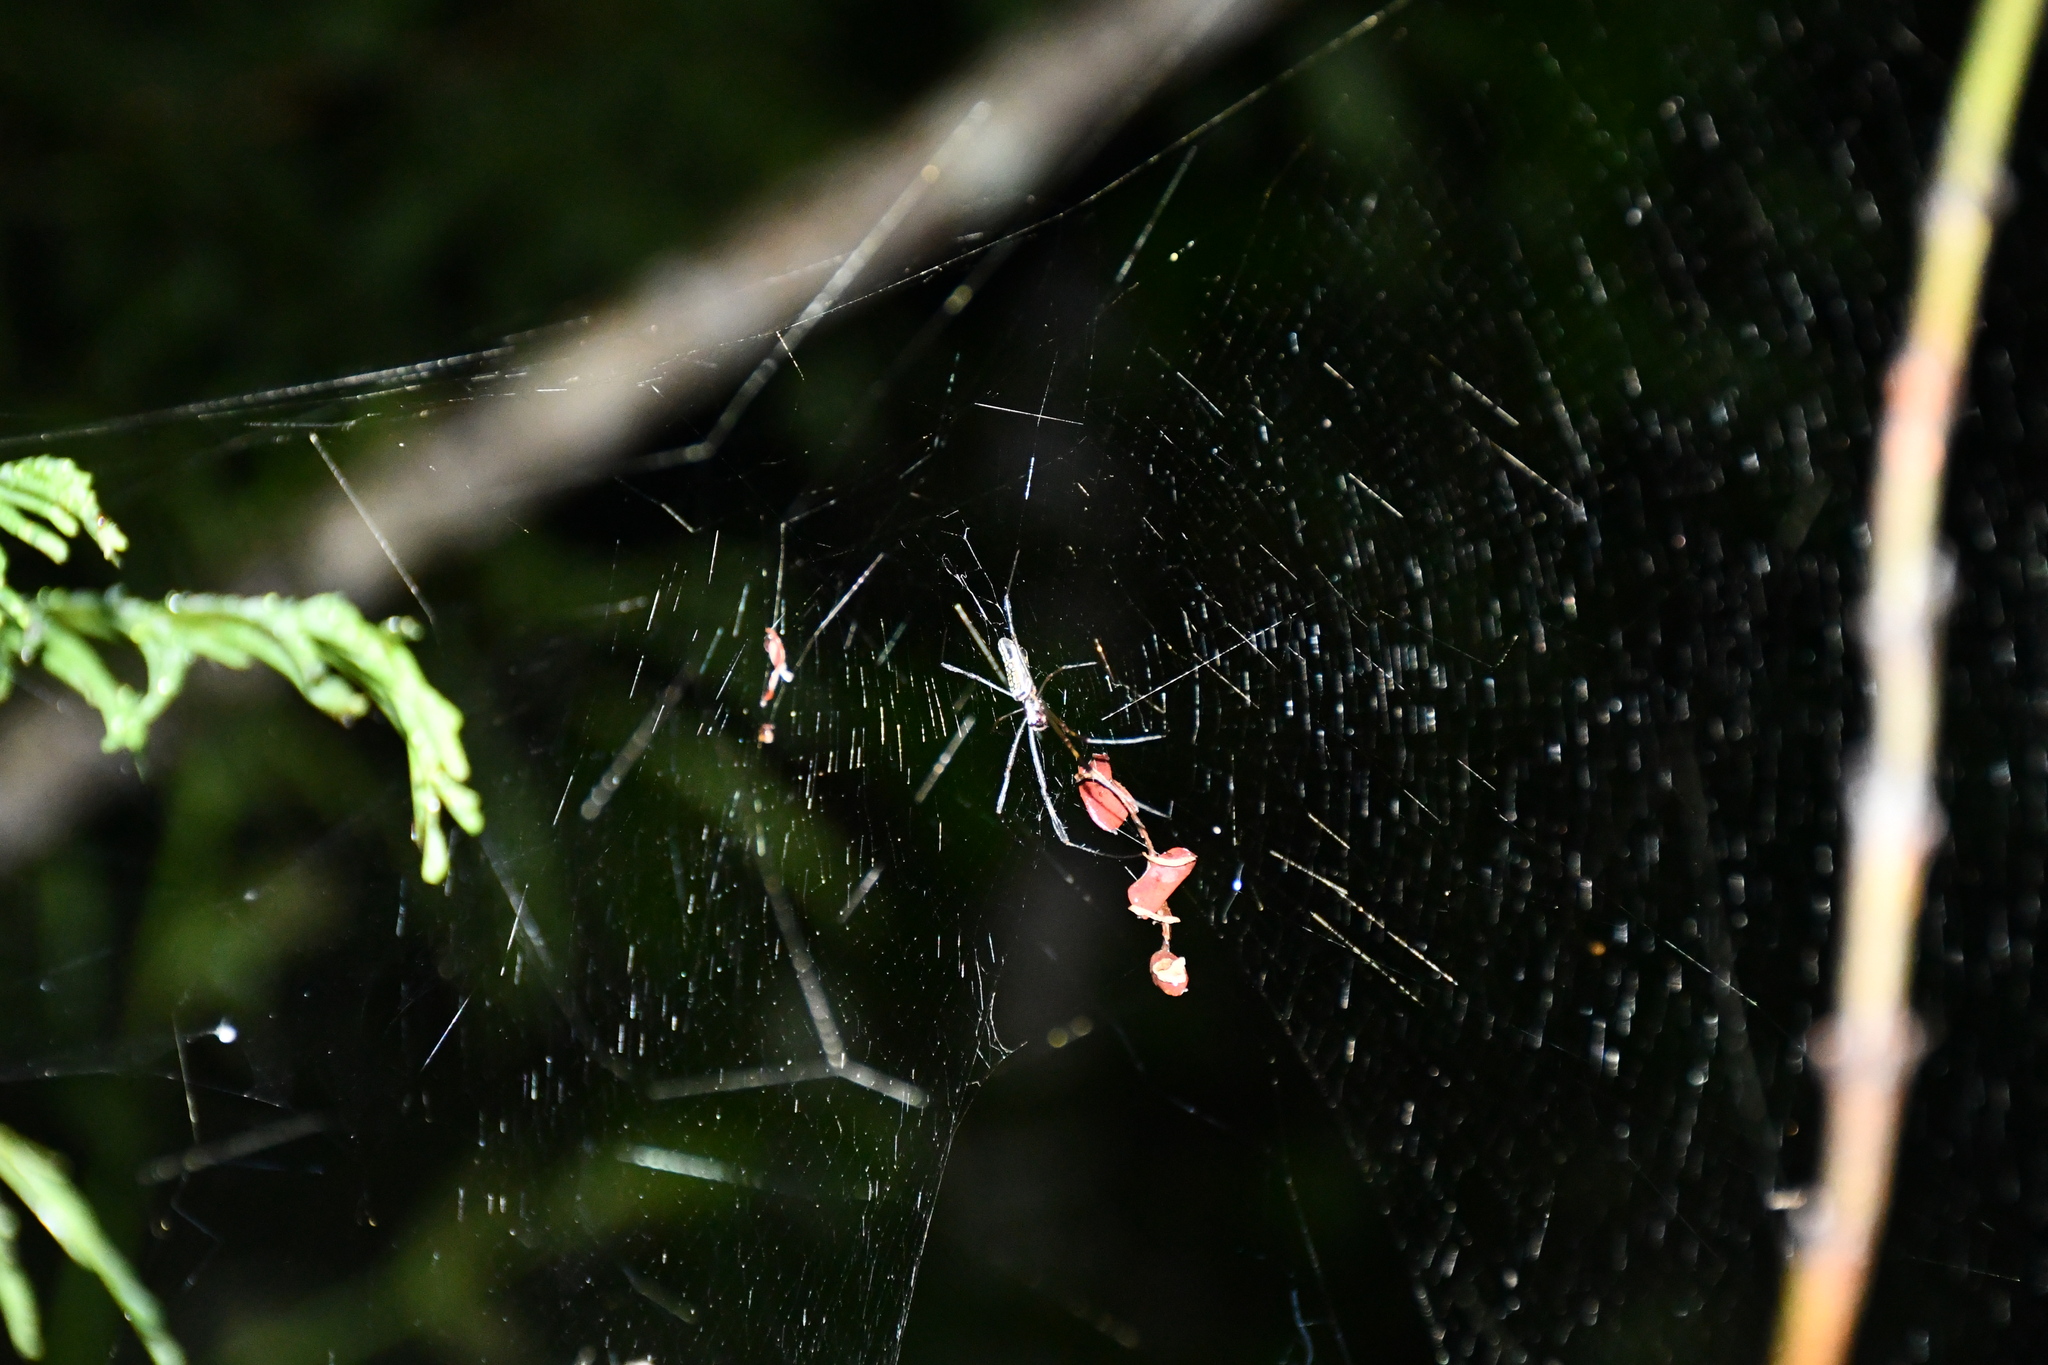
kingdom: Animalia
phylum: Arthropoda
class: Arachnida
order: Araneae
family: Araneidae
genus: Trichonephila
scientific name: Trichonephila clavipes
